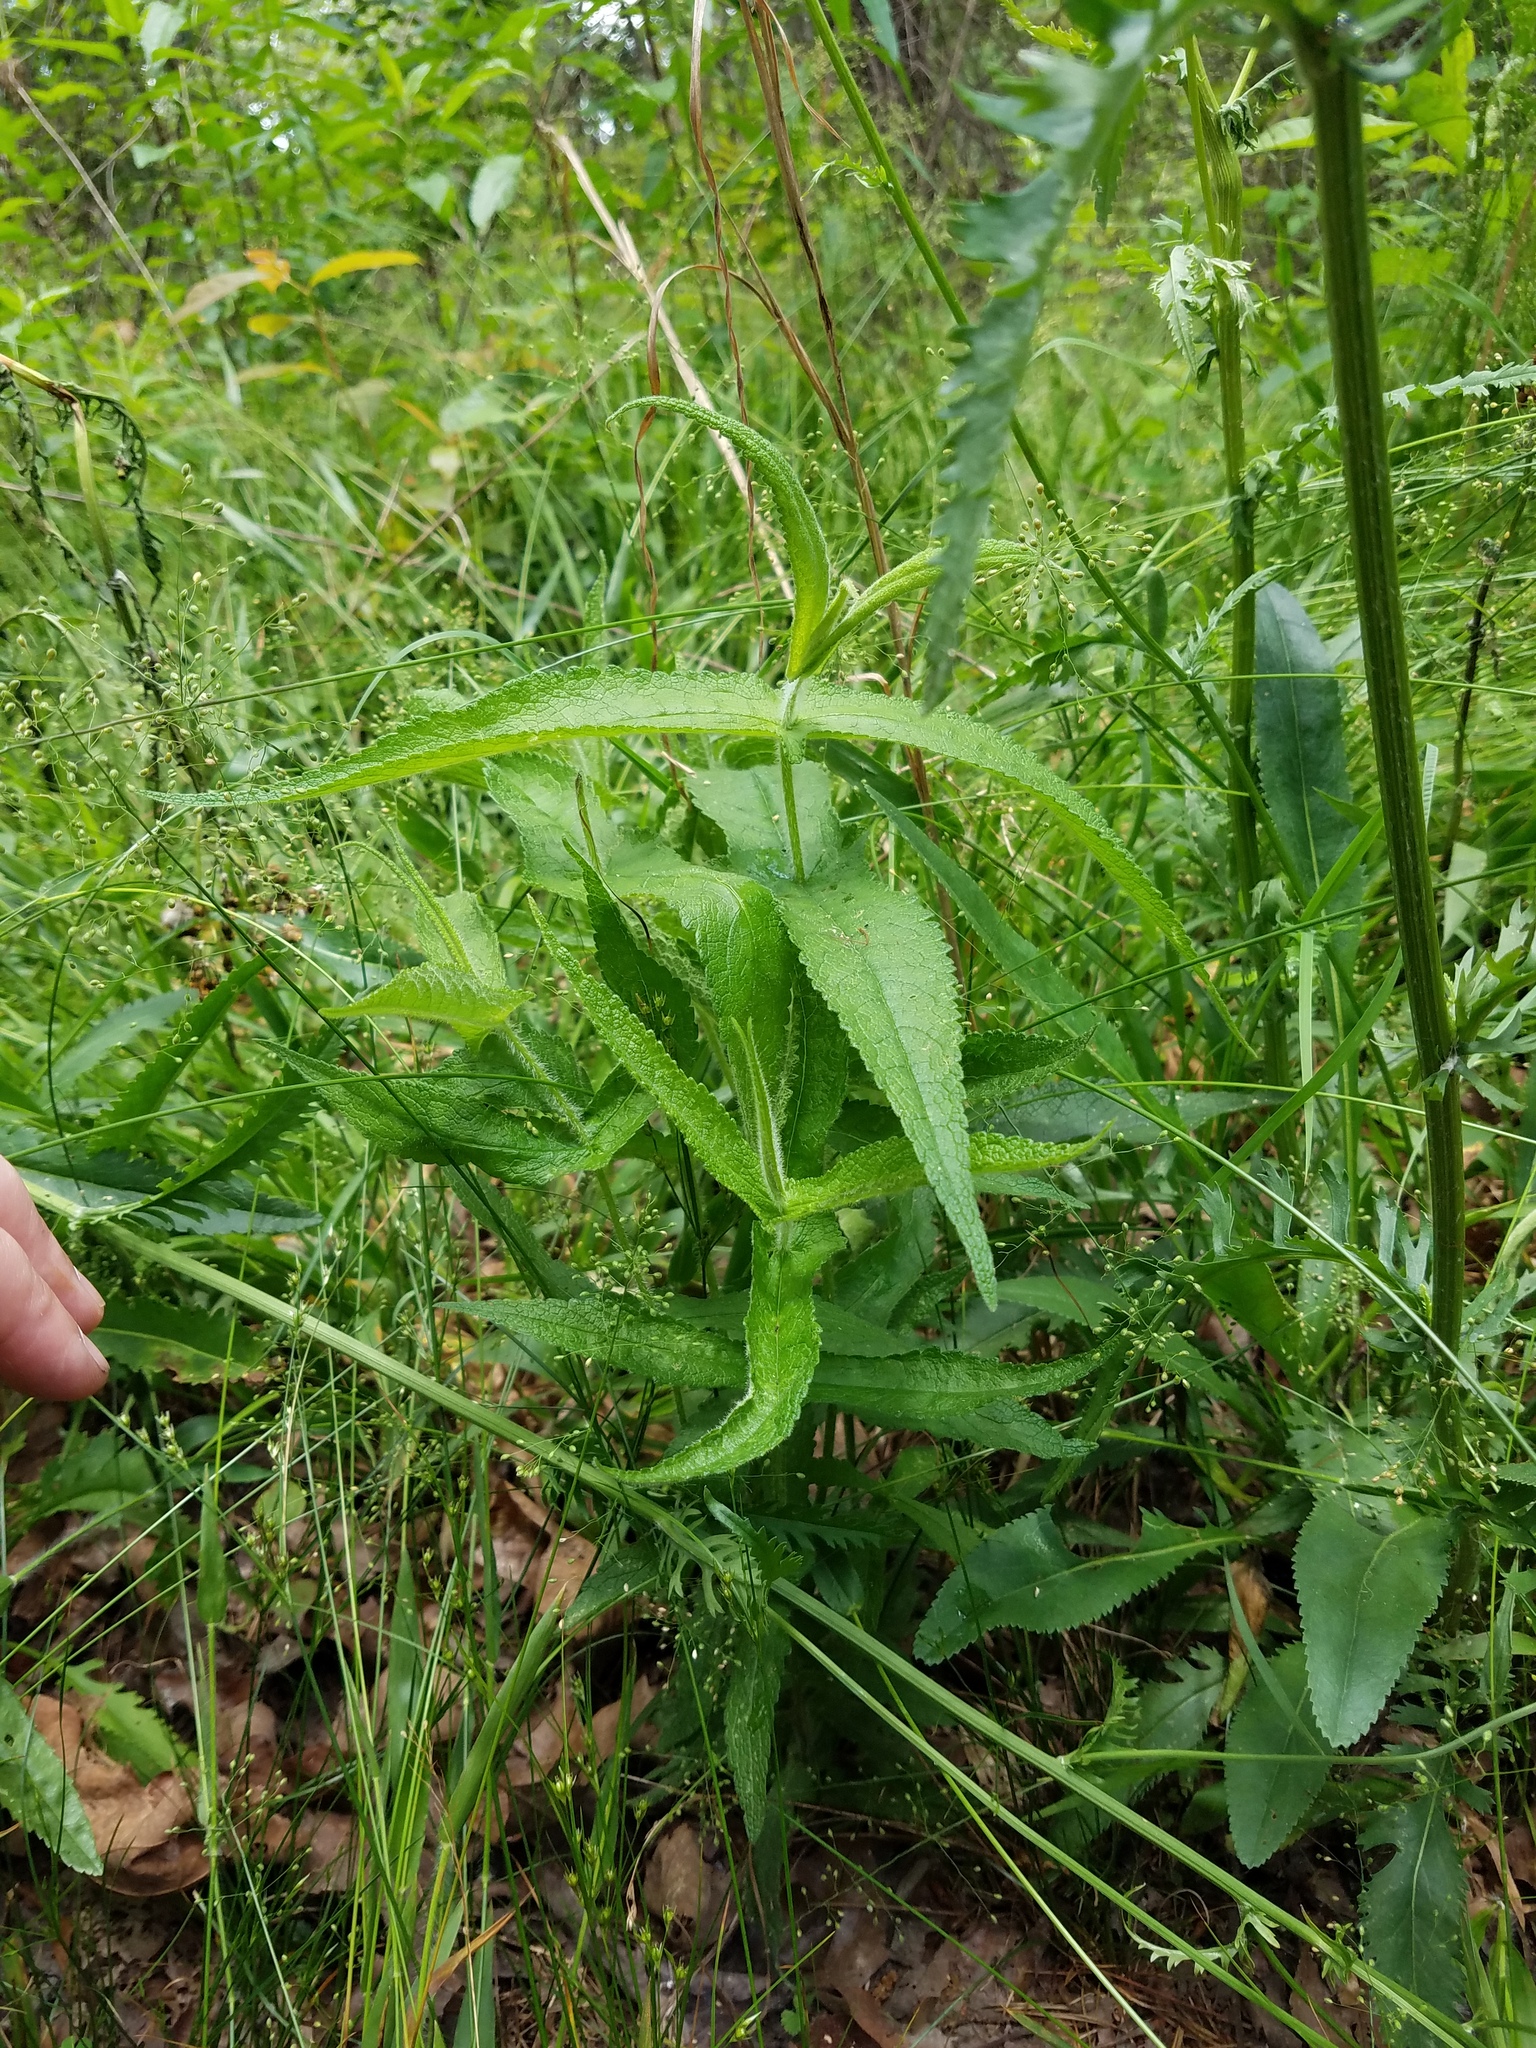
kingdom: Plantae
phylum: Tracheophyta
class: Magnoliopsida
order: Asterales
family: Asteraceae
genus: Eupatorium
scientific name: Eupatorium perfoliatum
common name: Boneset
